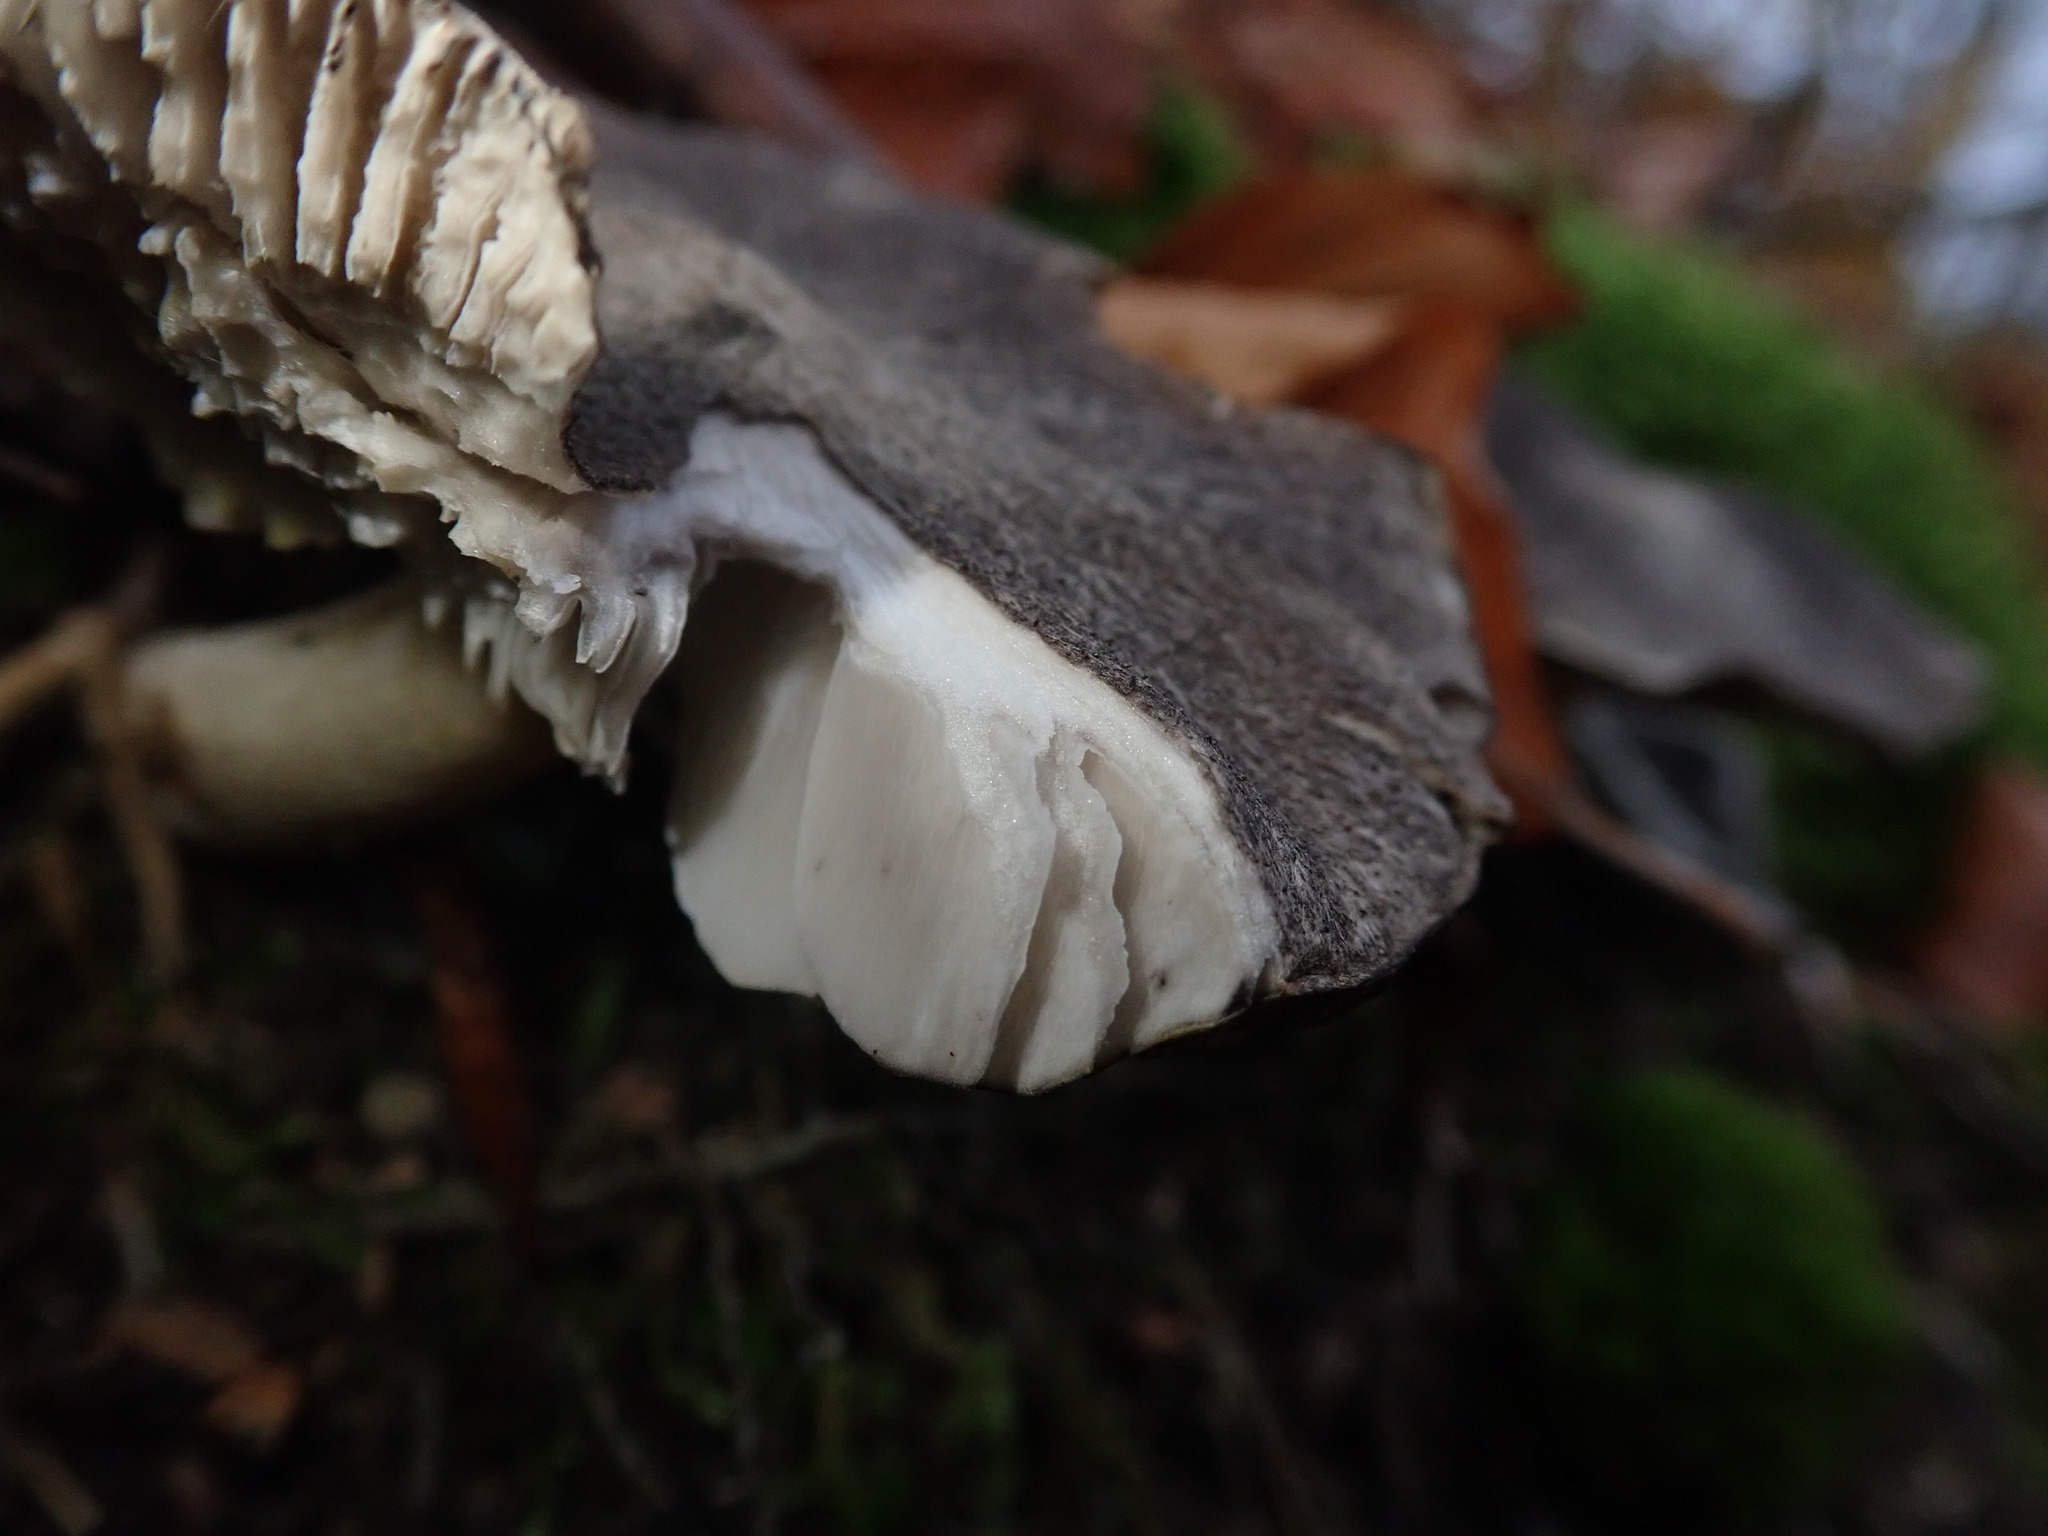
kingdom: Fungi
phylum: Basidiomycota
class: Agaricomycetes
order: Agaricales
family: Tricholomataceae
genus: Tricholoma
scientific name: Tricholoma terreum
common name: Grey knight
